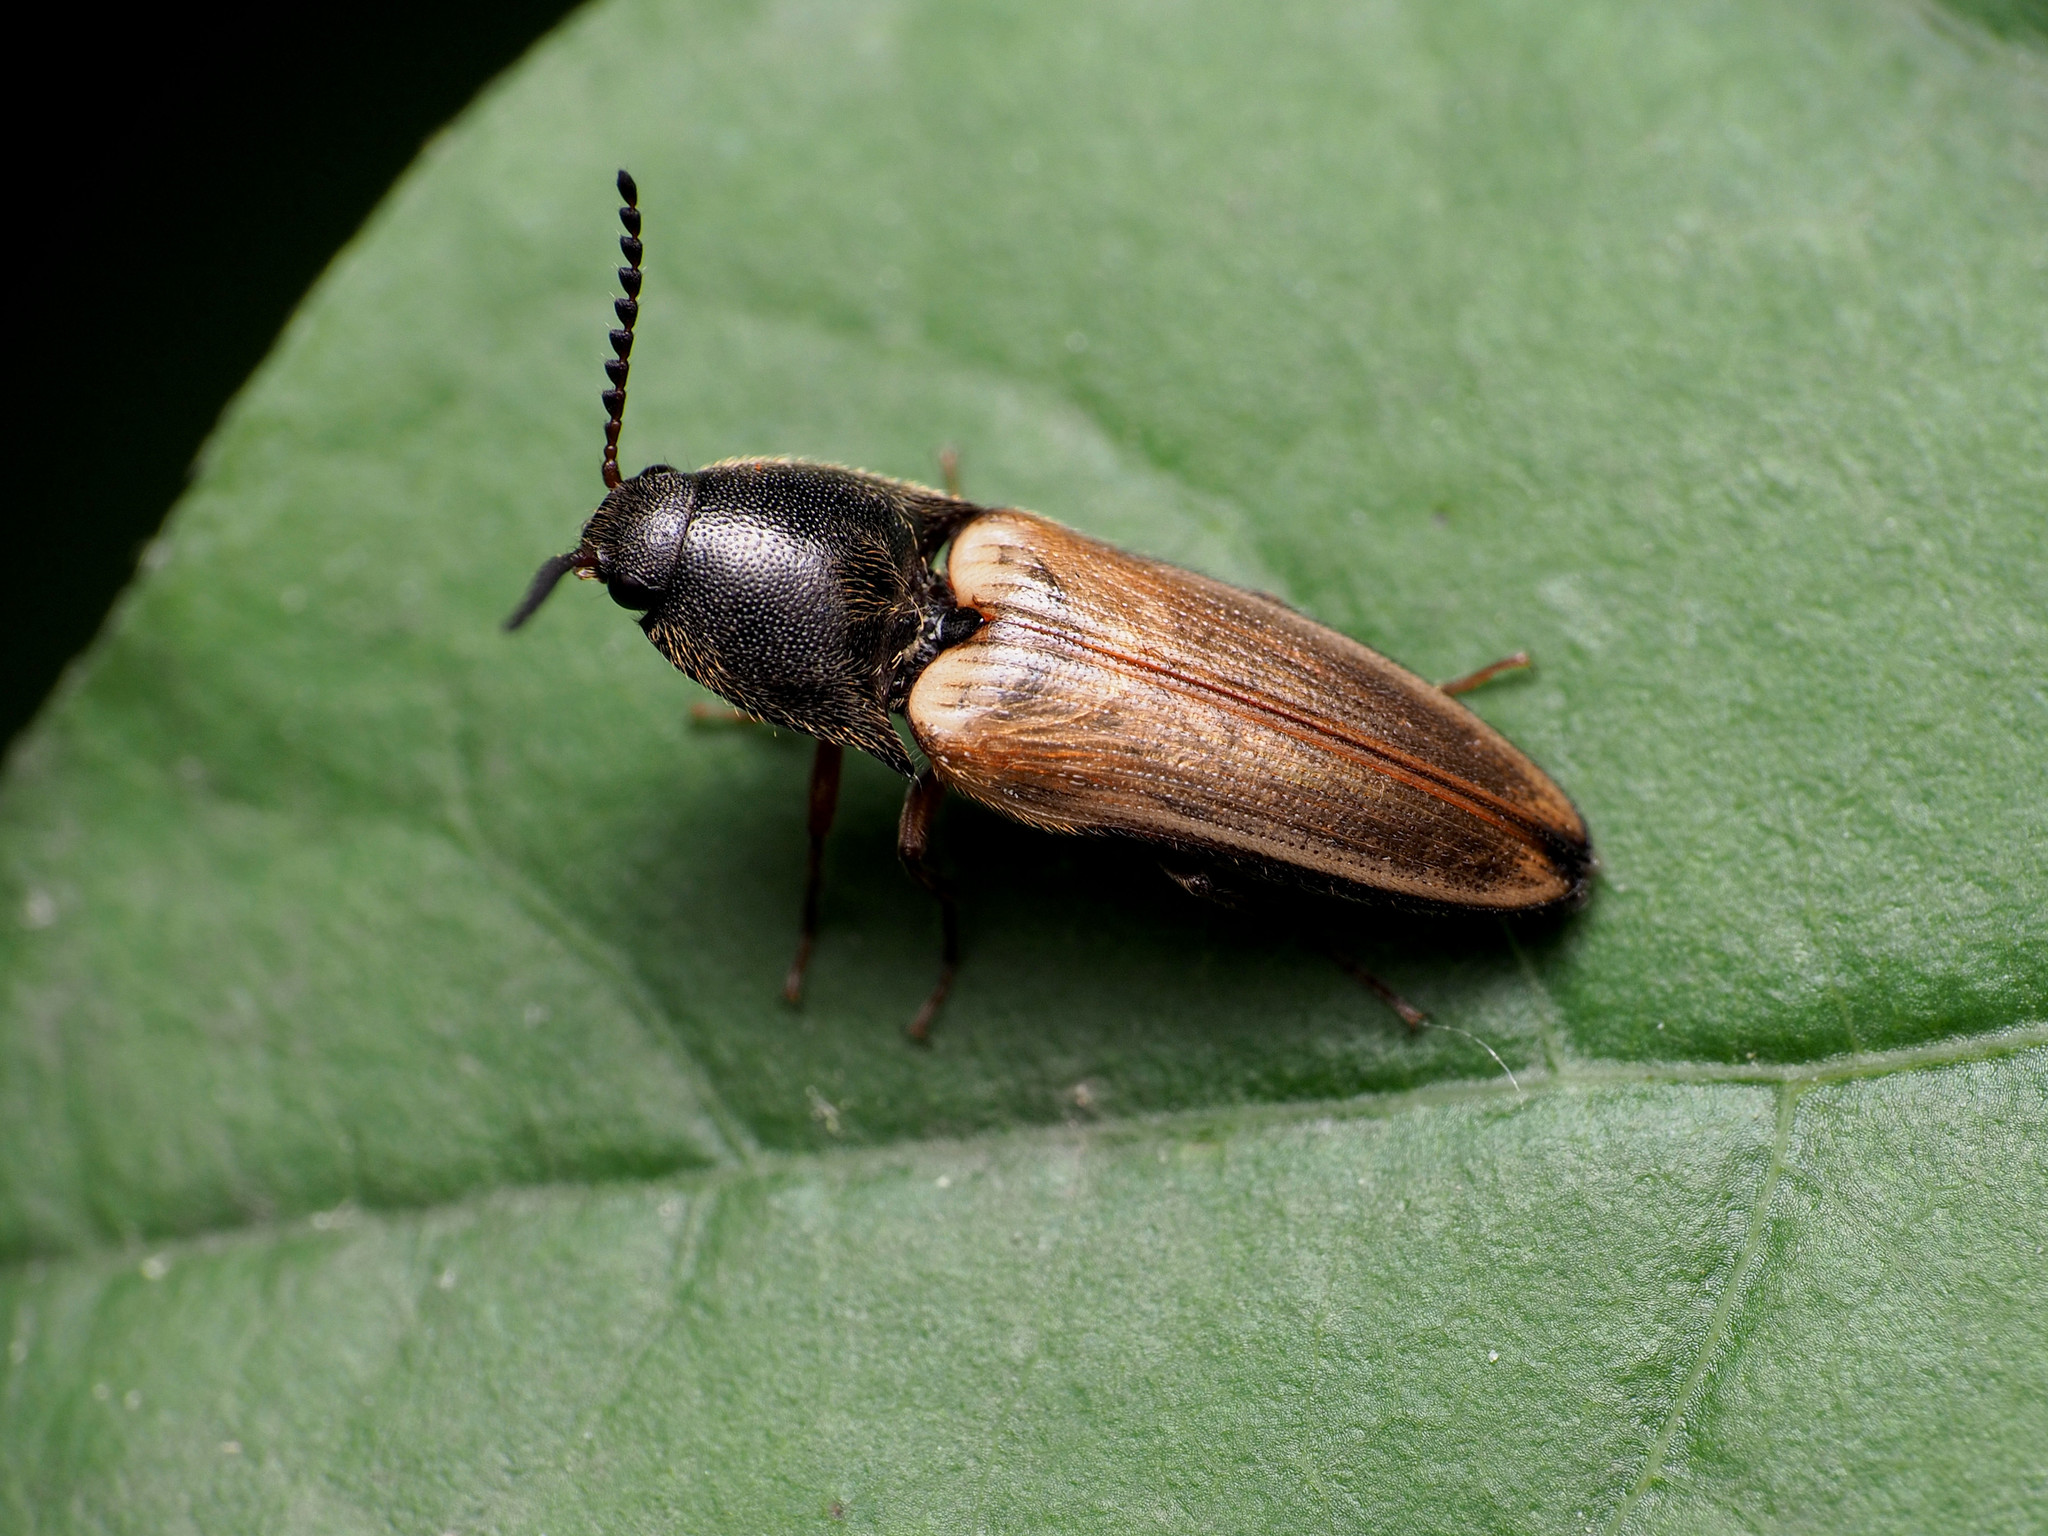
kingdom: Animalia
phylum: Arthropoda
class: Insecta
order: Coleoptera
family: Elateridae
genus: Ampedus
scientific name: Ampedus nigricollis
